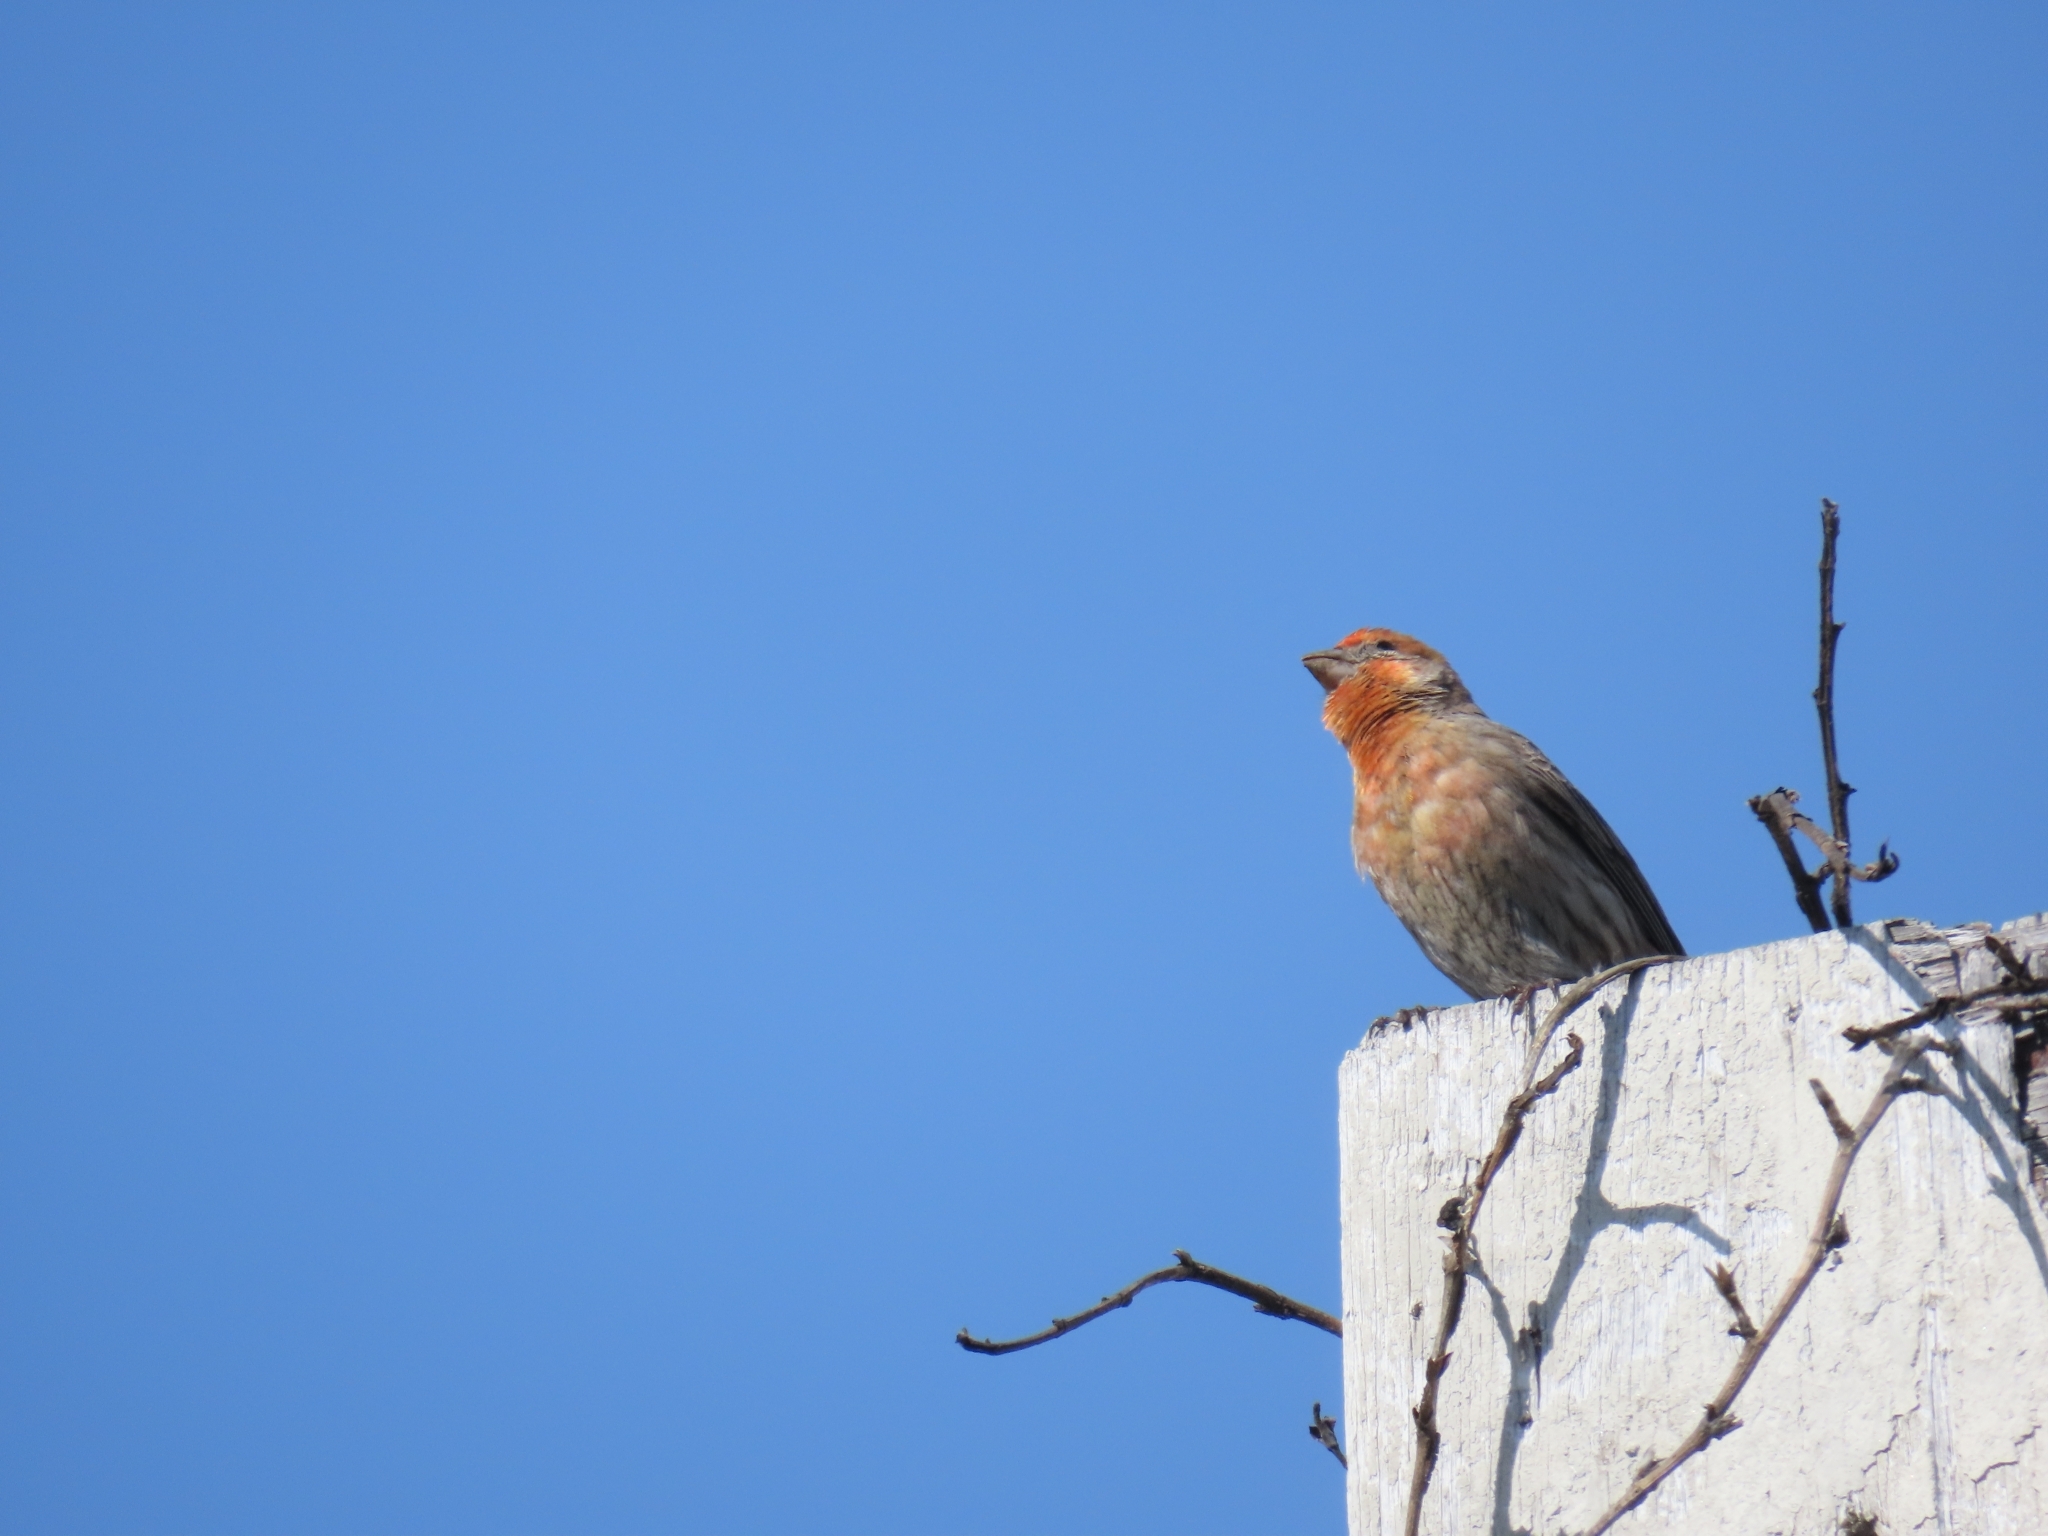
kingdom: Animalia
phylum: Chordata
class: Aves
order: Passeriformes
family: Fringillidae
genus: Haemorhous
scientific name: Haemorhous mexicanus
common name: House finch
